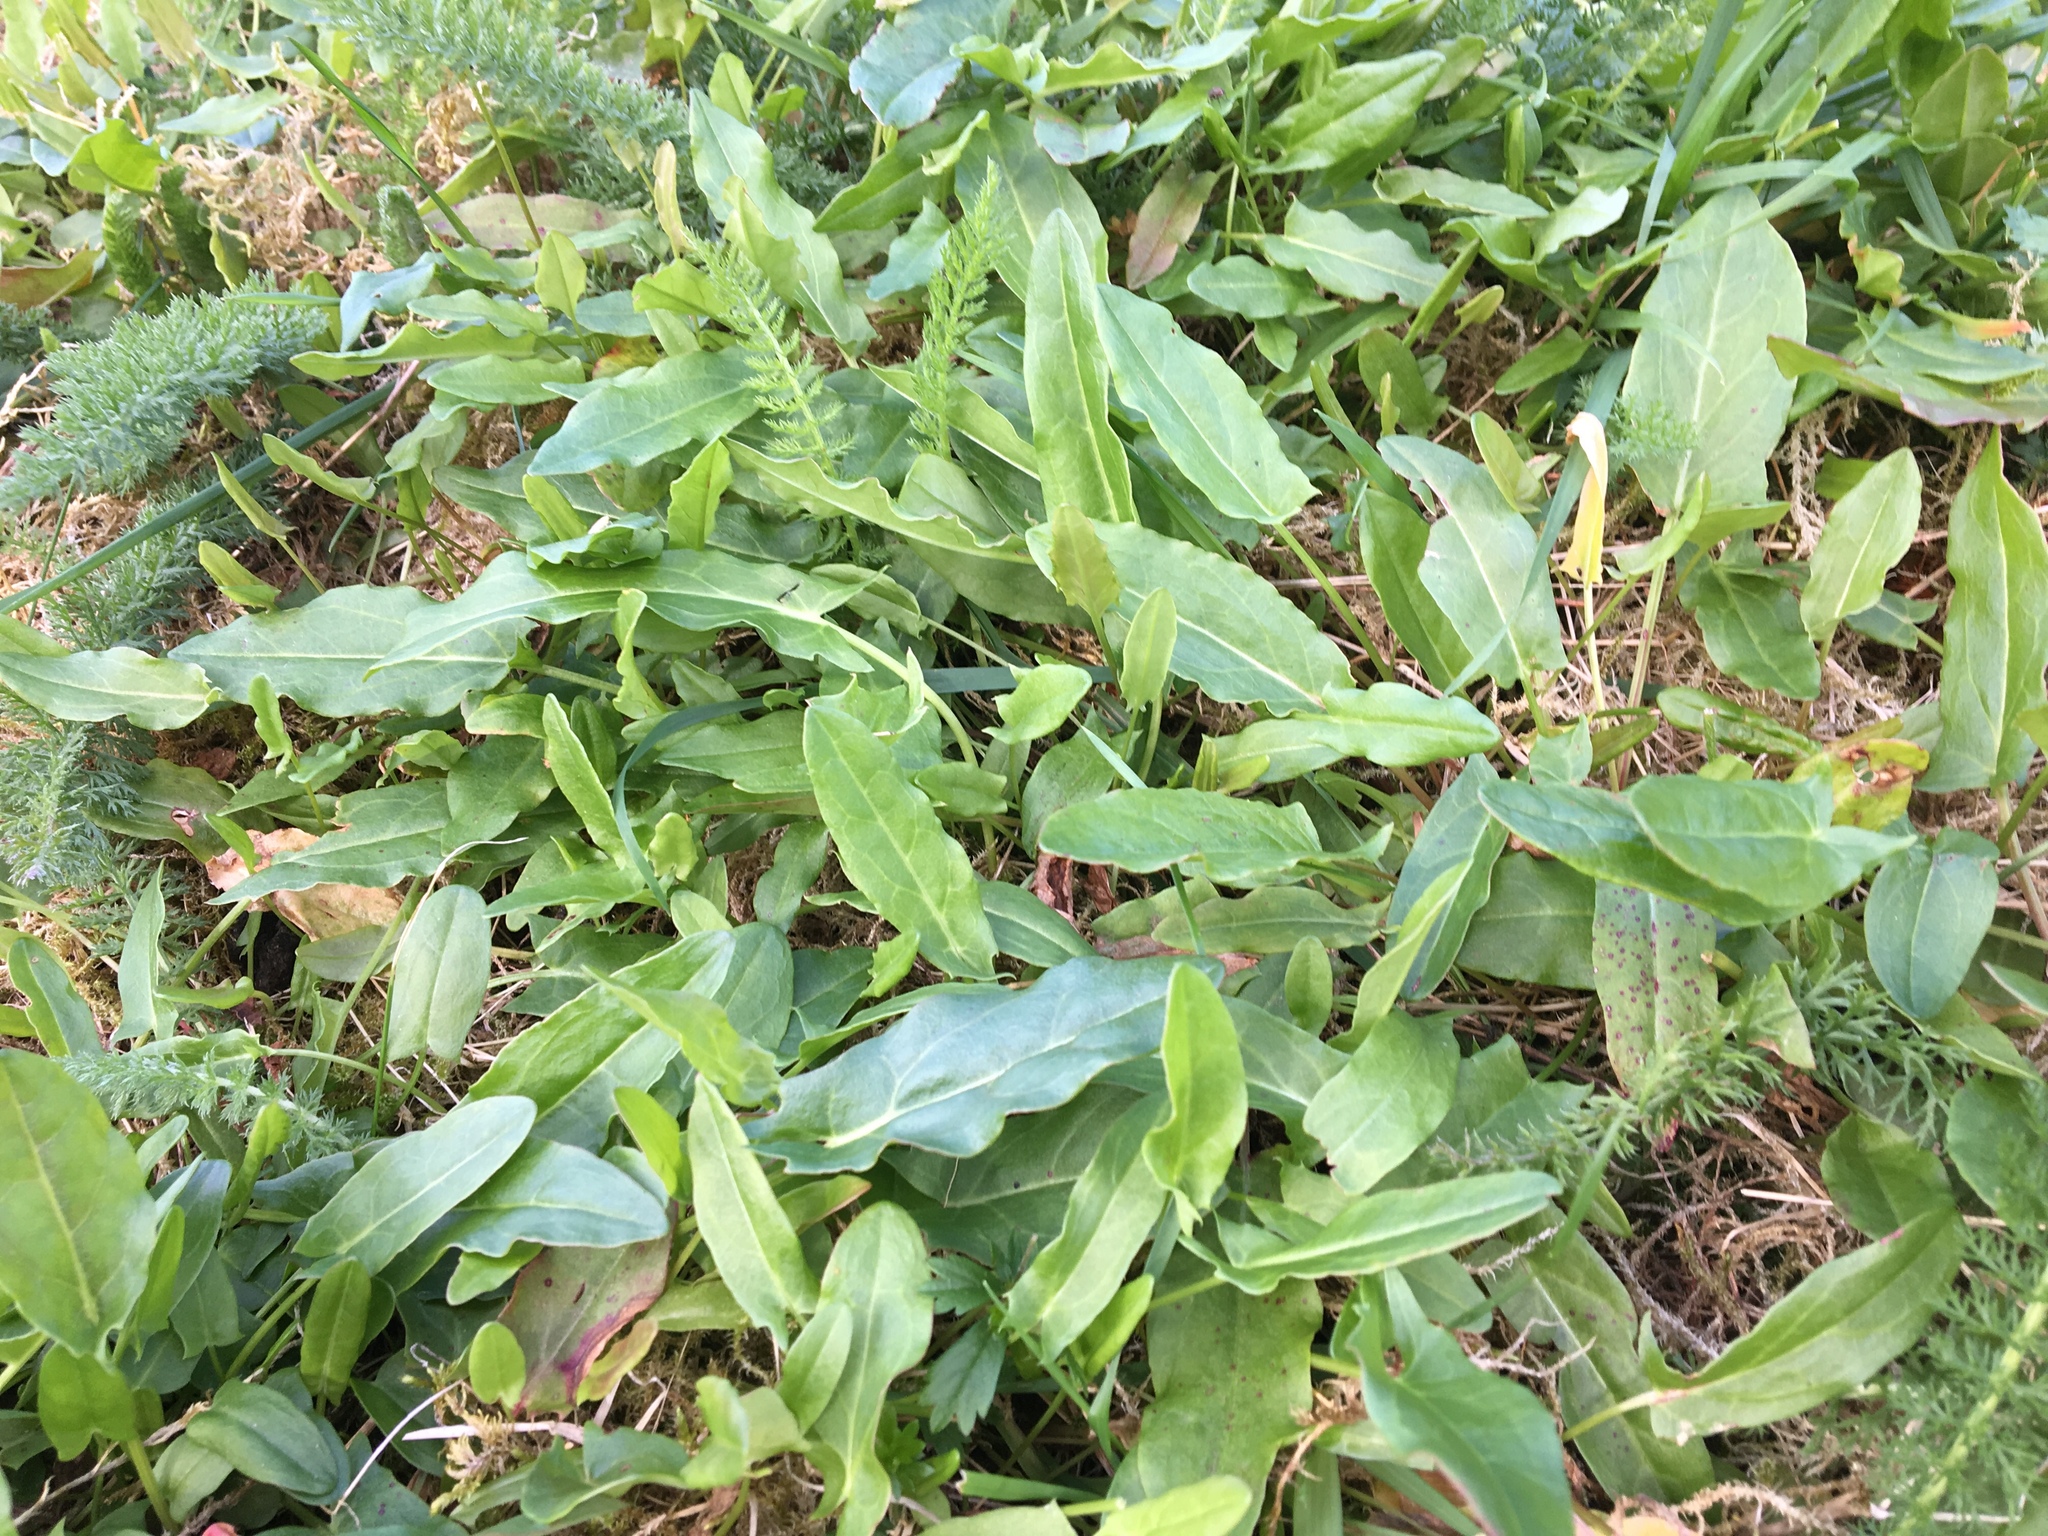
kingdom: Plantae
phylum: Tracheophyta
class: Magnoliopsida
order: Caryophyllales
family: Polygonaceae
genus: Rumex
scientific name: Rumex acetosa
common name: Garden sorrel
